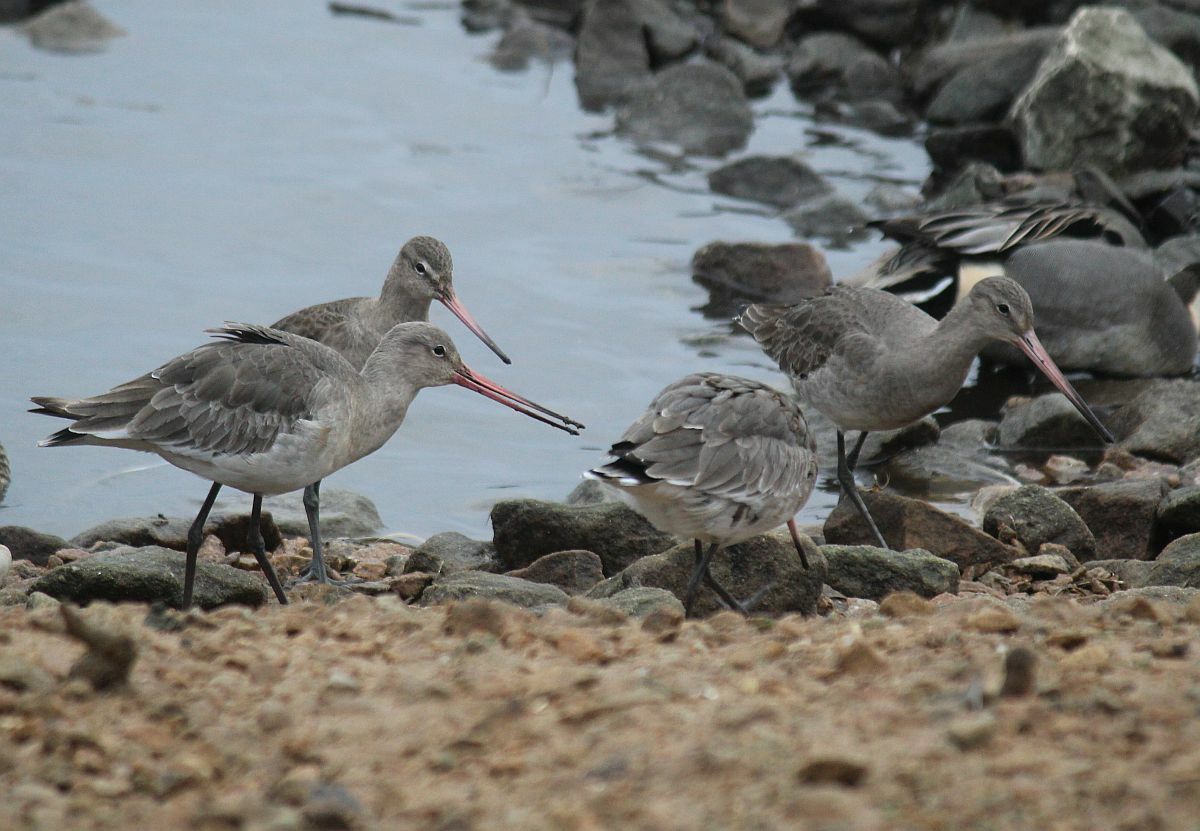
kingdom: Animalia
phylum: Chordata
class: Aves
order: Charadriiformes
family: Scolopacidae
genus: Limosa
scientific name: Limosa limosa
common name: Black-tailed godwit
